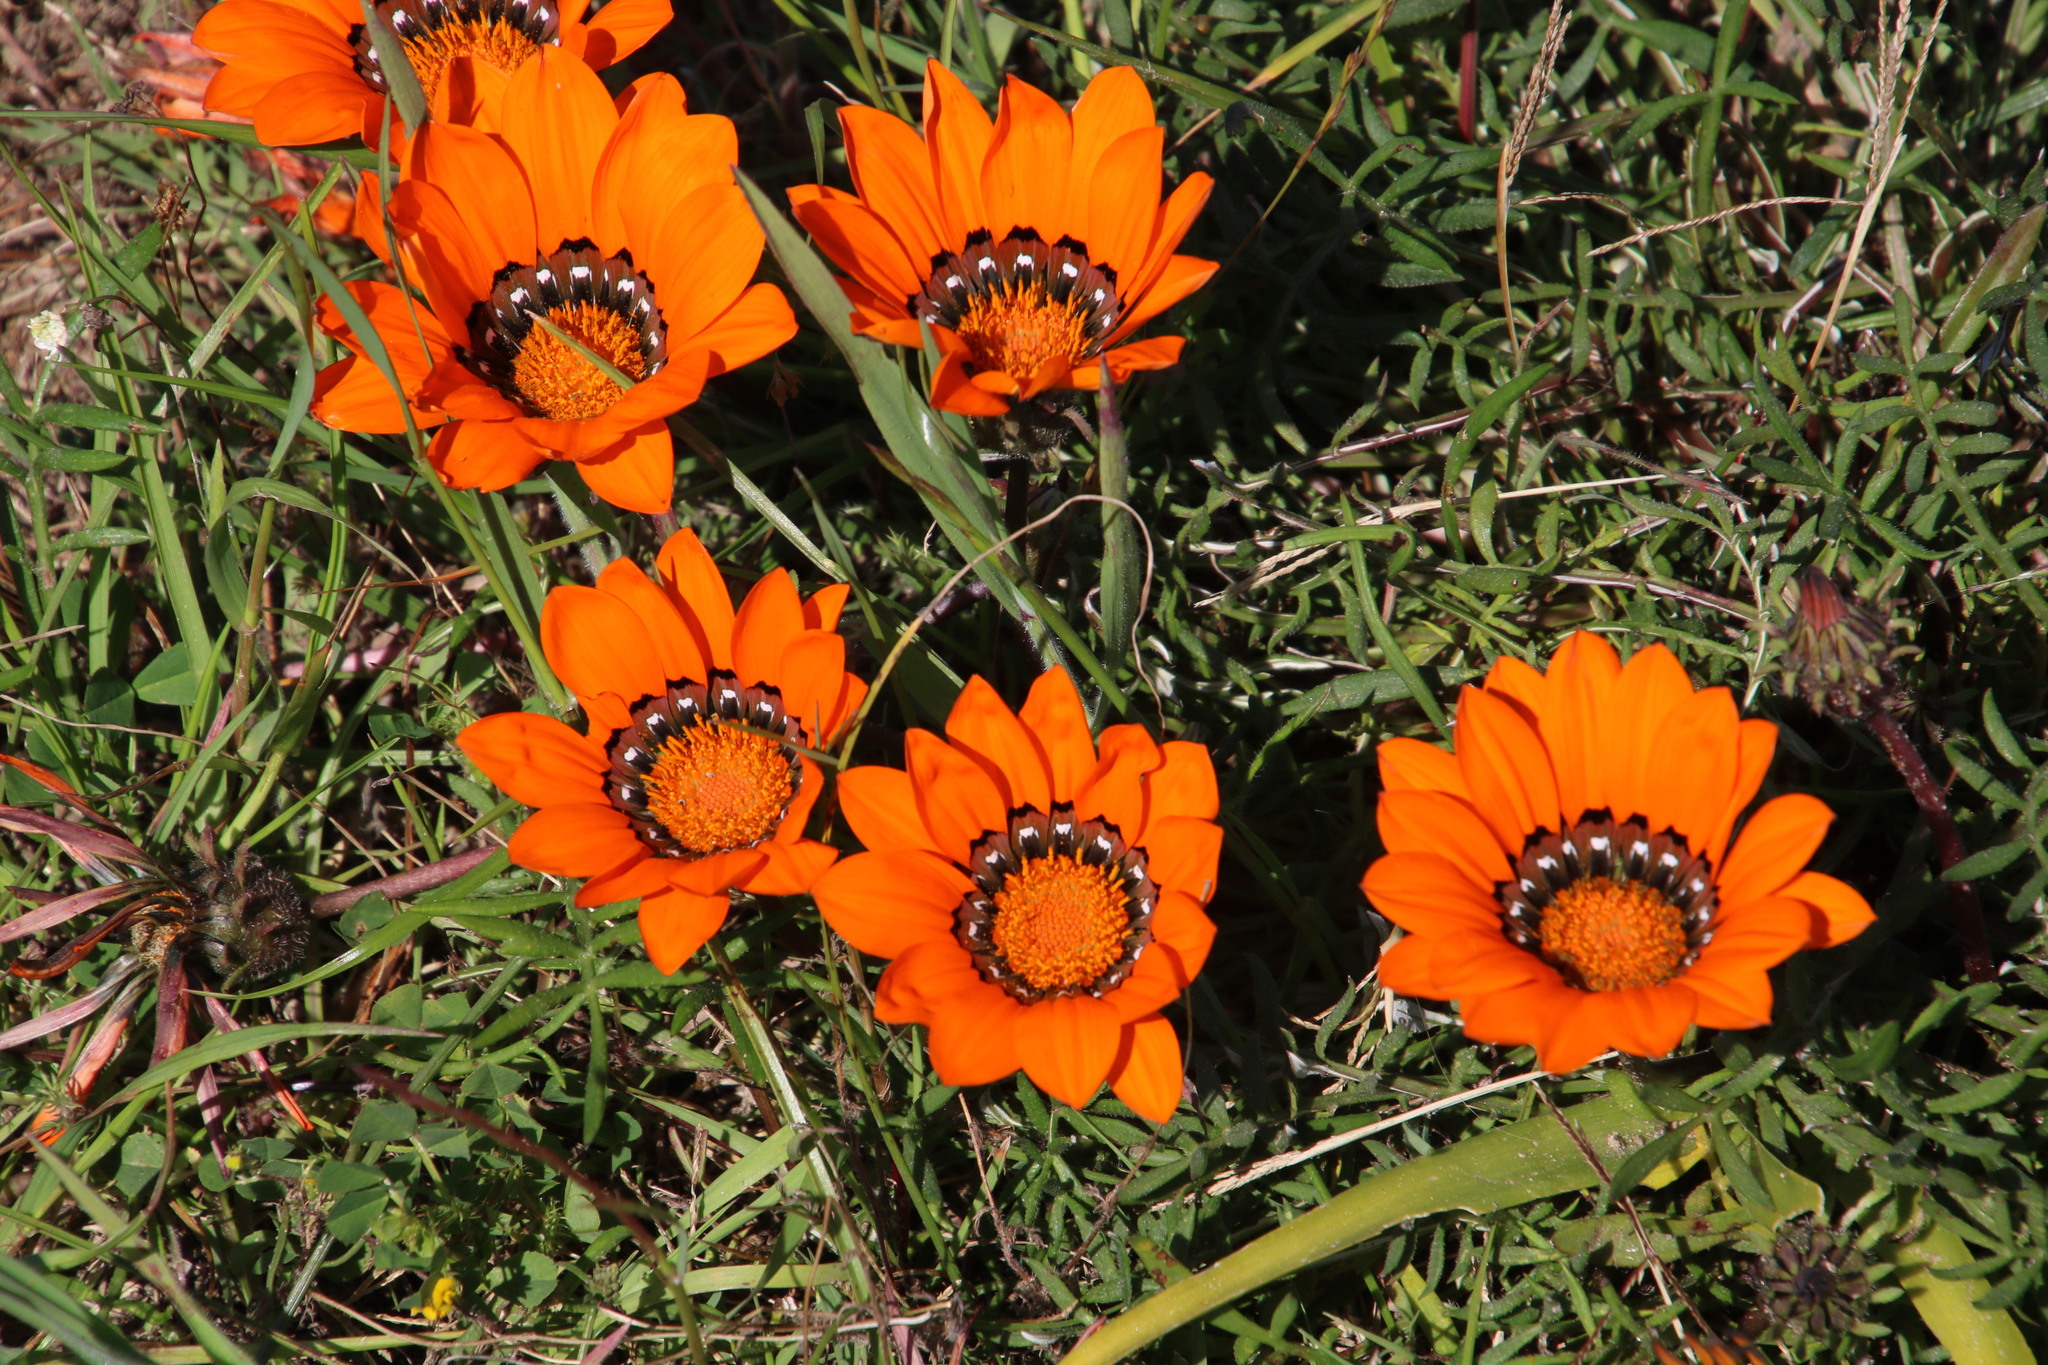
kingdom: Plantae
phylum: Tracheophyta
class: Magnoliopsida
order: Asterales
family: Asteraceae
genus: Gazania
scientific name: Gazania pectinata
